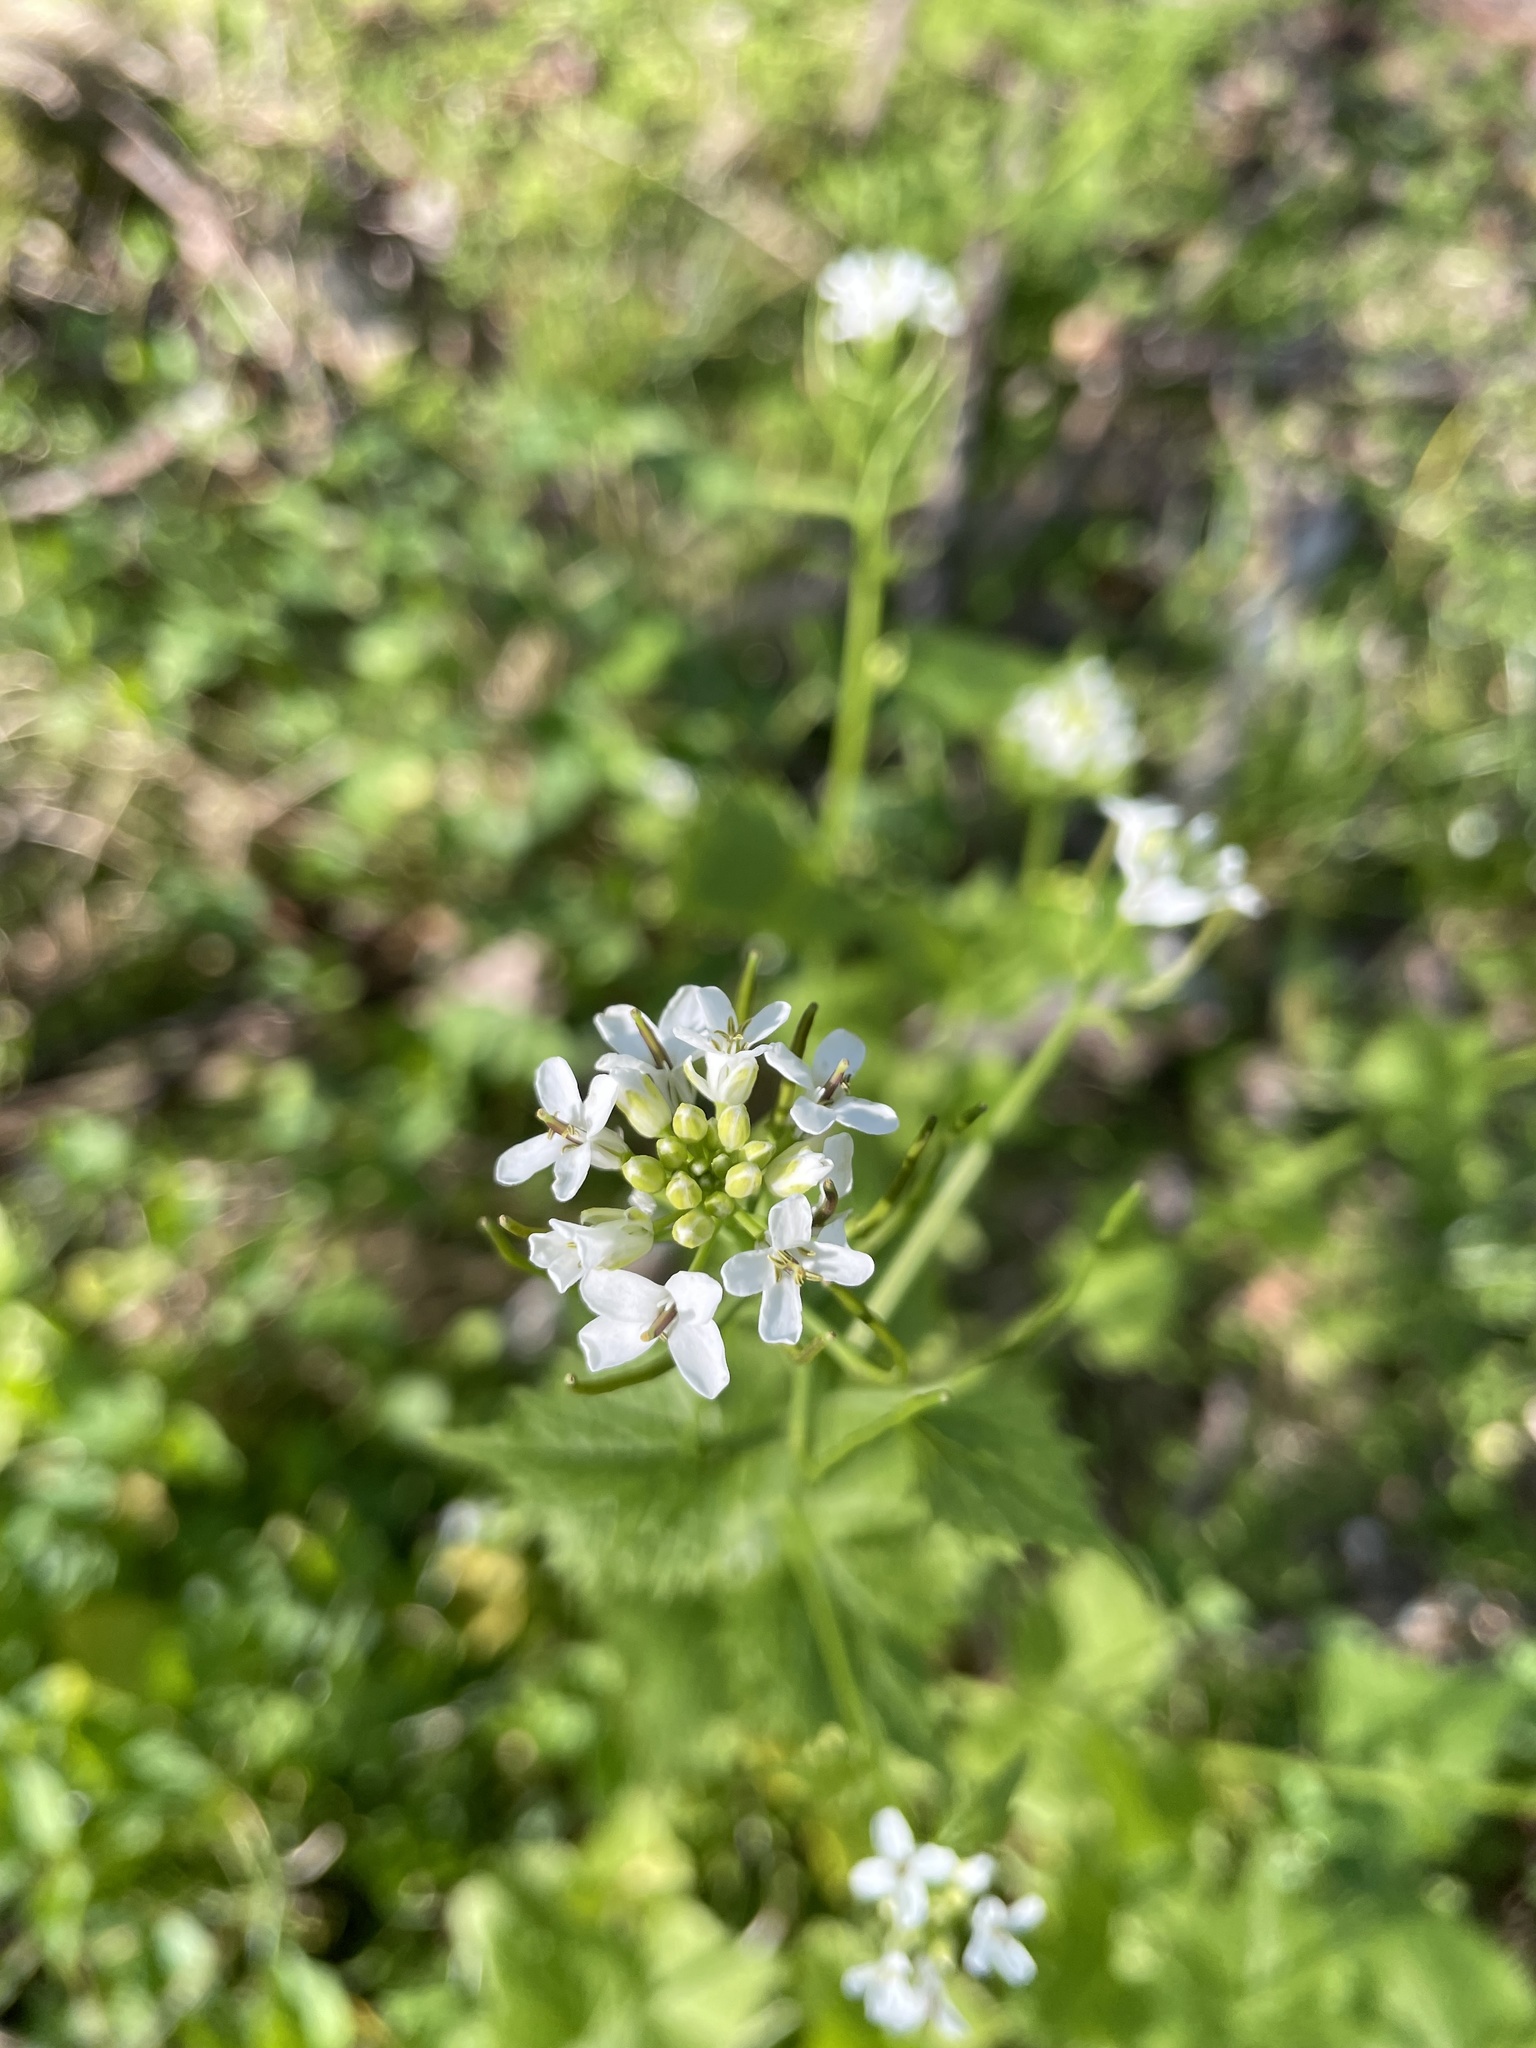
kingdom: Plantae
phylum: Tracheophyta
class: Magnoliopsida
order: Brassicales
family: Brassicaceae
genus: Alliaria
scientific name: Alliaria petiolata
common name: Garlic mustard
